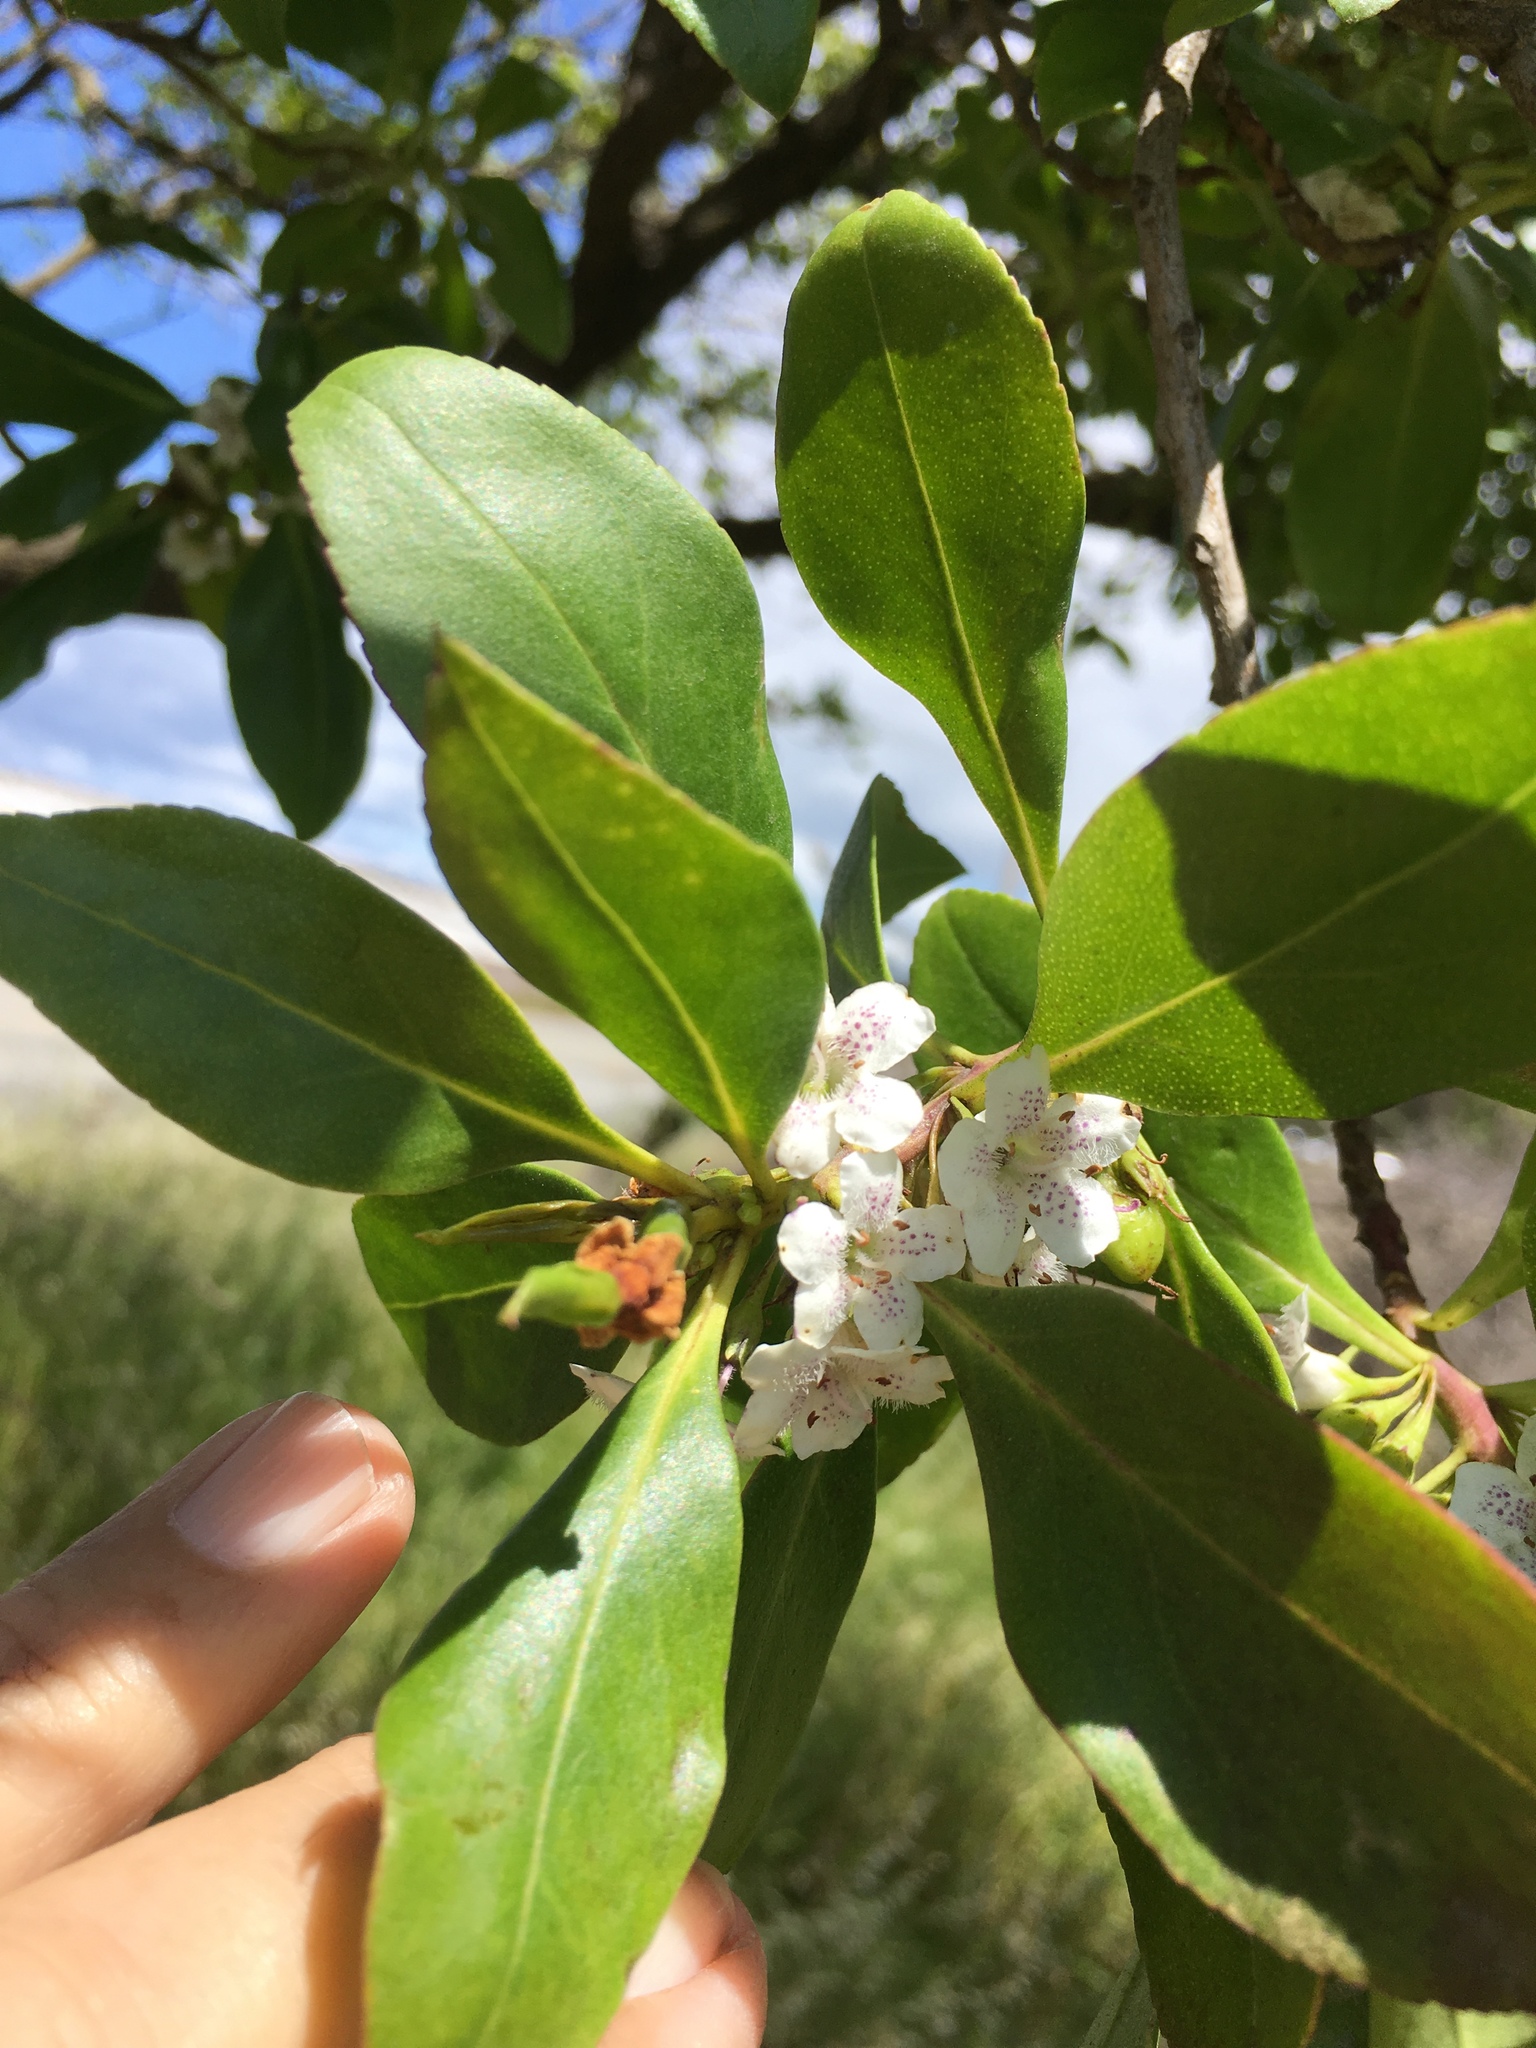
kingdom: Plantae
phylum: Tracheophyta
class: Magnoliopsida
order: Lamiales
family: Scrophulariaceae
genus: Myoporum
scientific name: Myoporum laetum
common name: Ngaio tree
